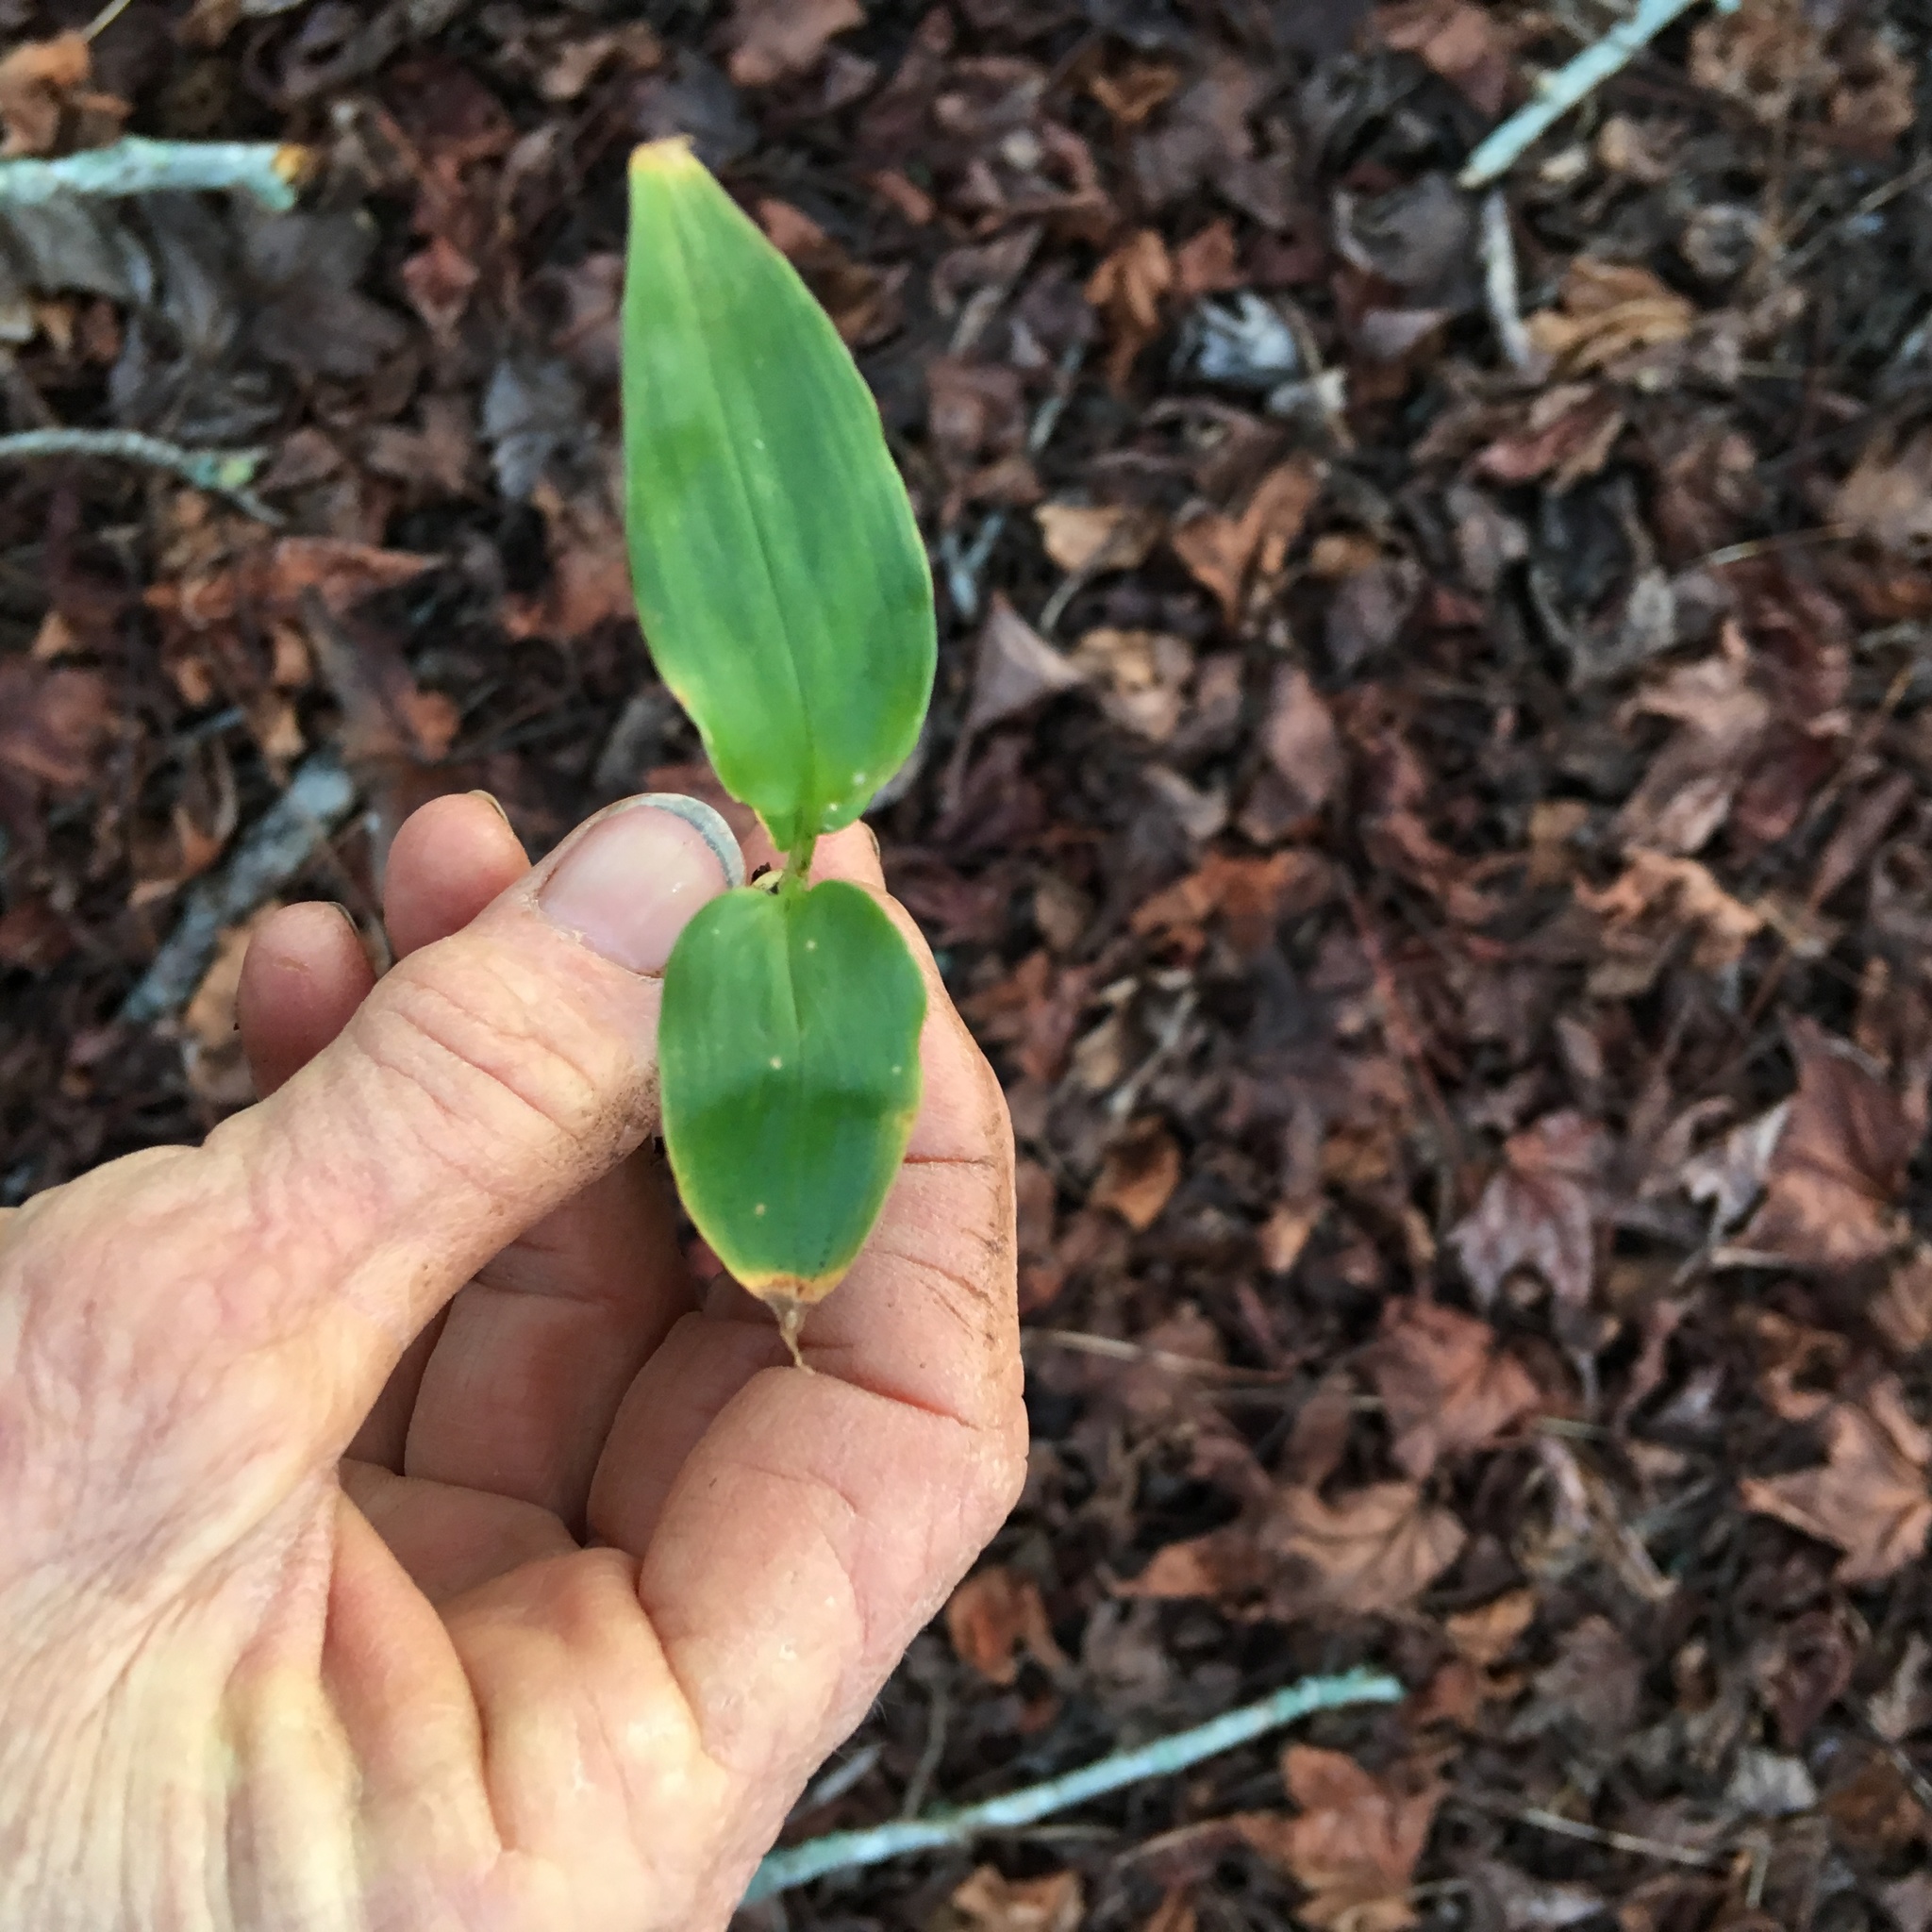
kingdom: Plantae
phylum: Tracheophyta
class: Liliopsida
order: Zingiberales
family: Zingiberaceae
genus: Hedychium
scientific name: Hedychium gardnerianum
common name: Himalayan ginger
